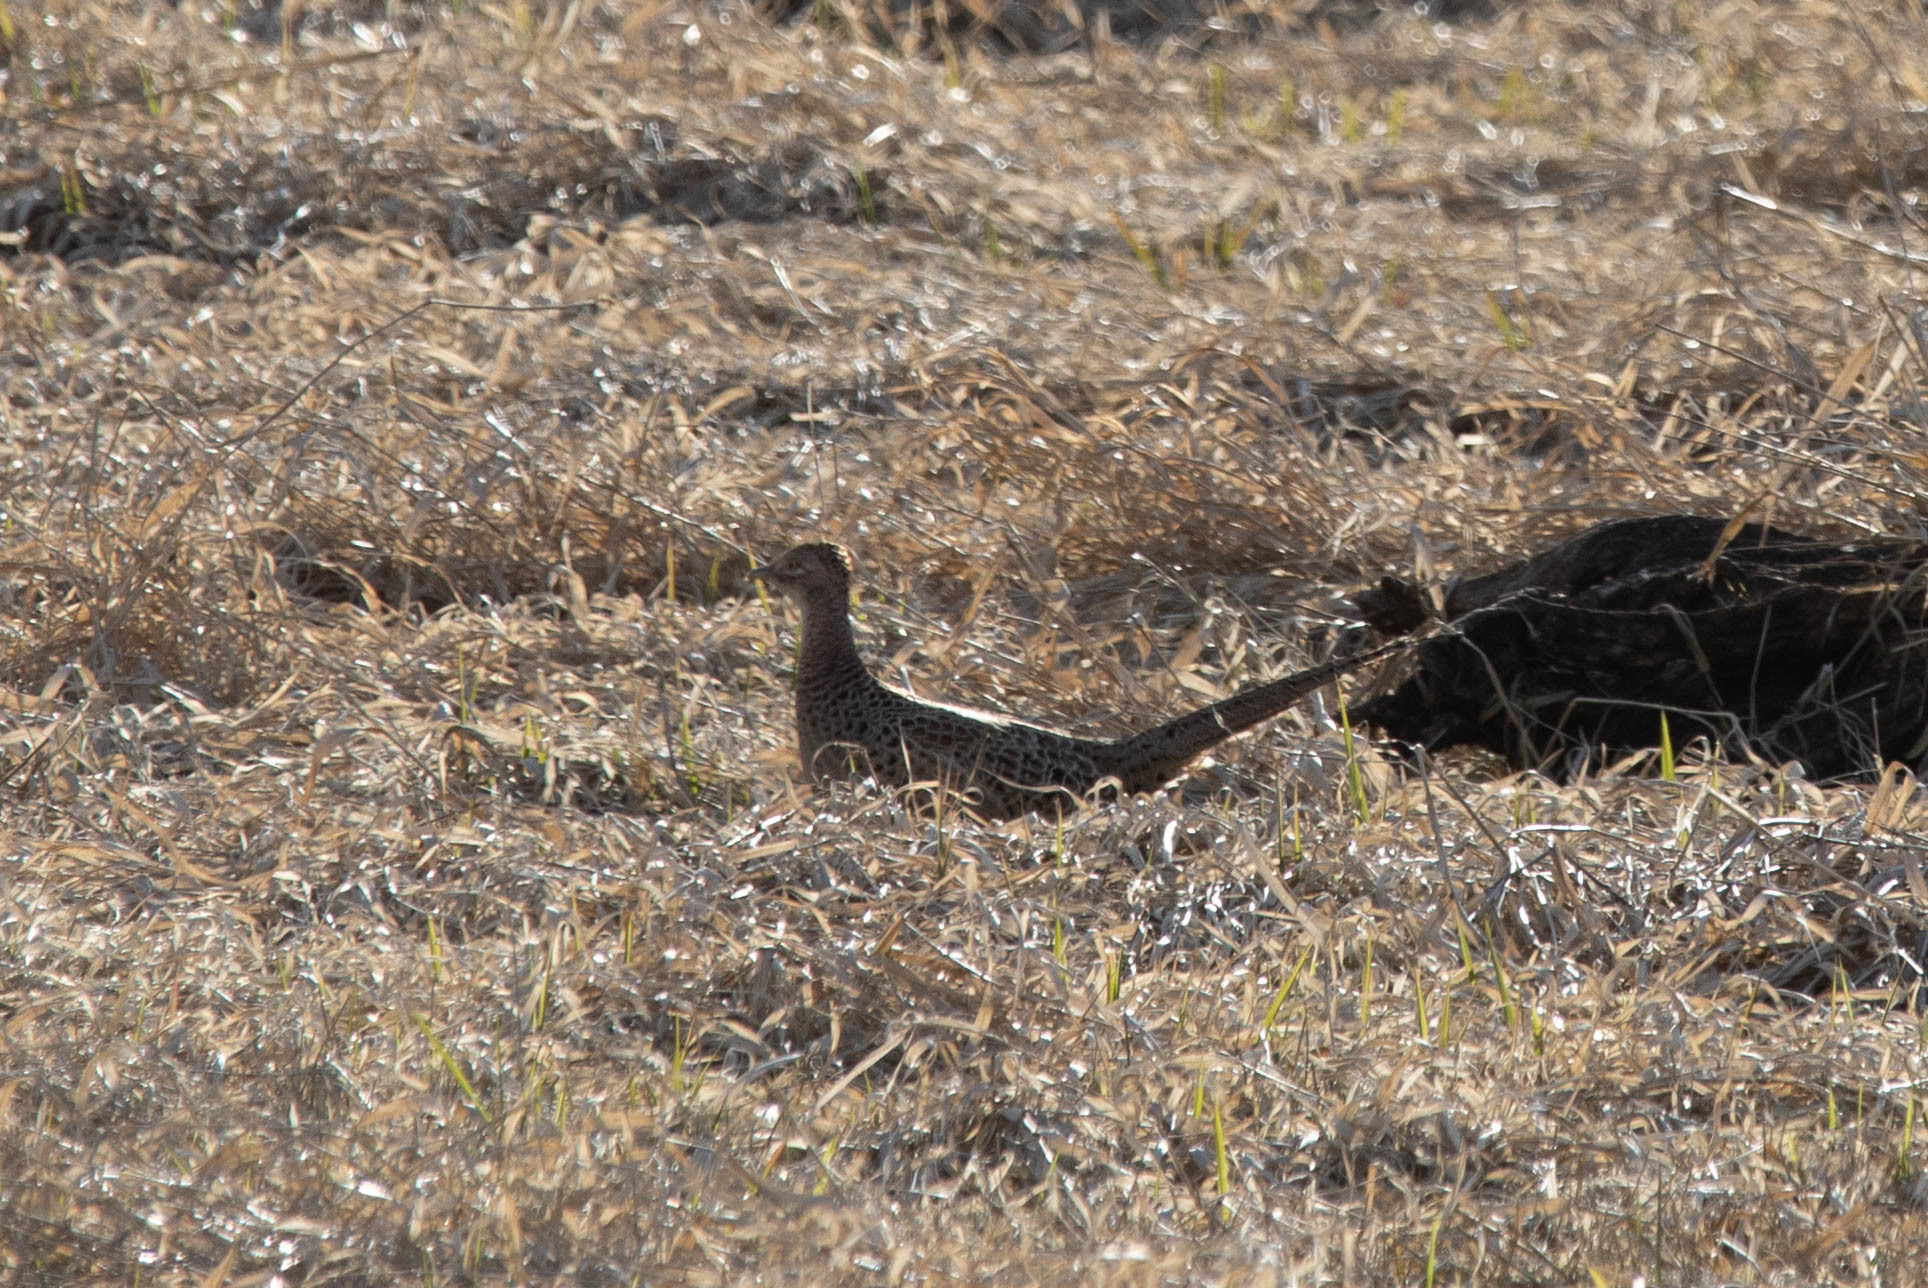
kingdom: Animalia
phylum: Chordata
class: Aves
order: Galliformes
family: Phasianidae
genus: Phasianus
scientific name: Phasianus colchicus
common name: Common pheasant
